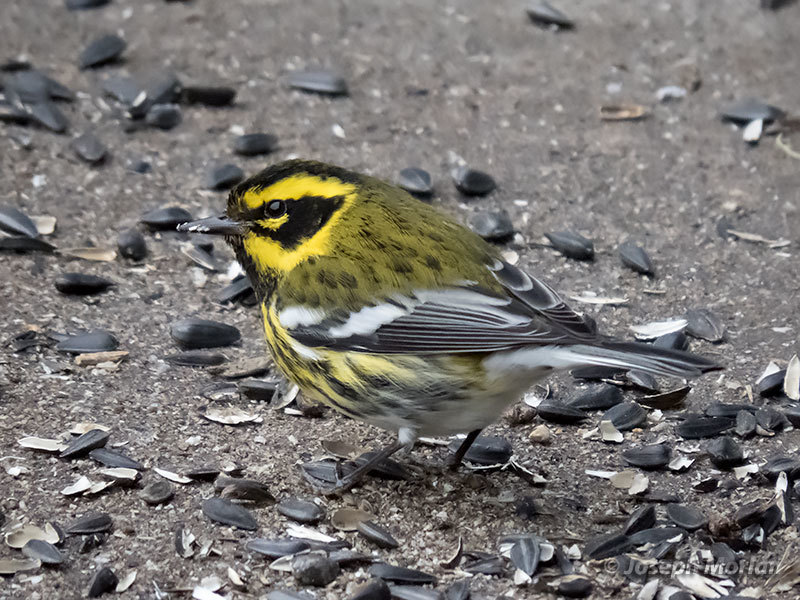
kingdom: Animalia
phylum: Chordata
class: Aves
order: Passeriformes
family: Parulidae
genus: Setophaga
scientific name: Setophaga townsendi
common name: Townsend's warbler
